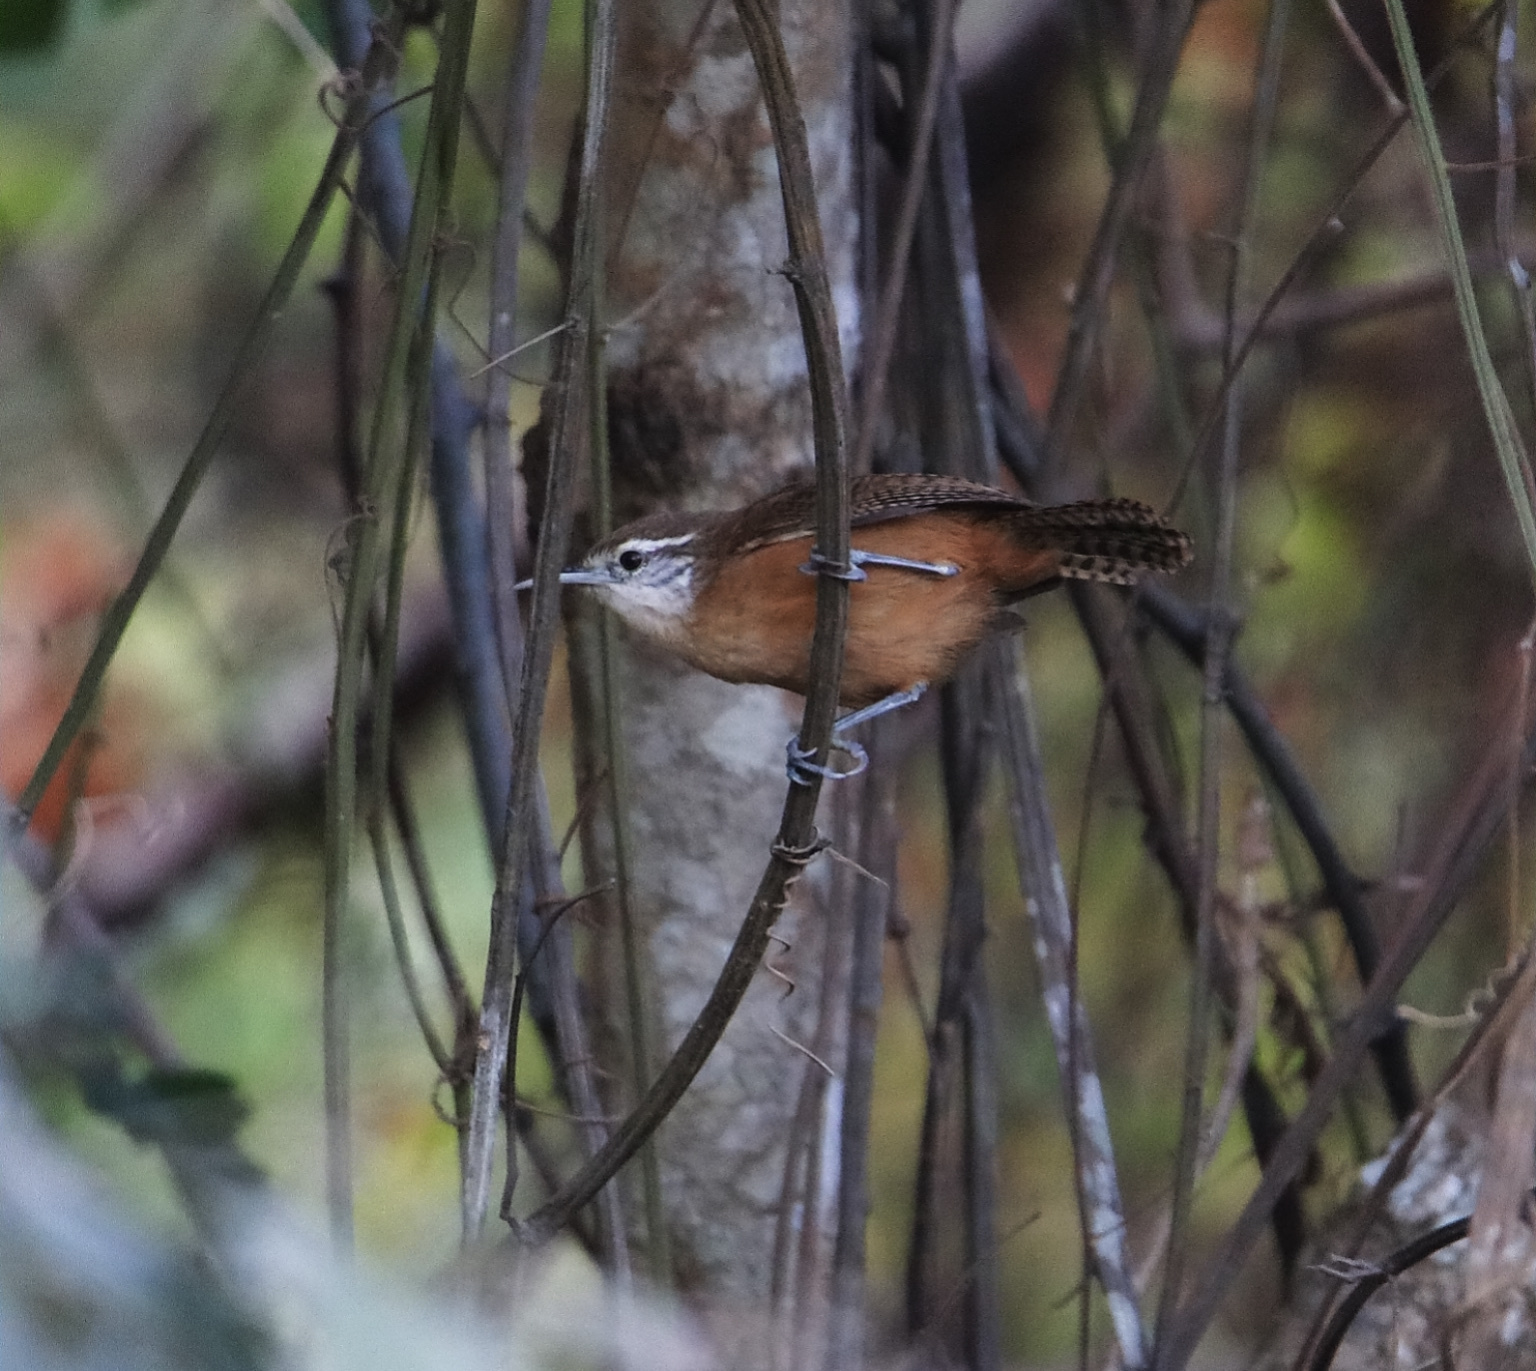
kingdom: Animalia
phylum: Chordata
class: Aves
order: Passeriformes
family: Troglodytidae
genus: Cantorchilus
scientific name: Cantorchilus leucotis
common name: Buff-breasted wren
